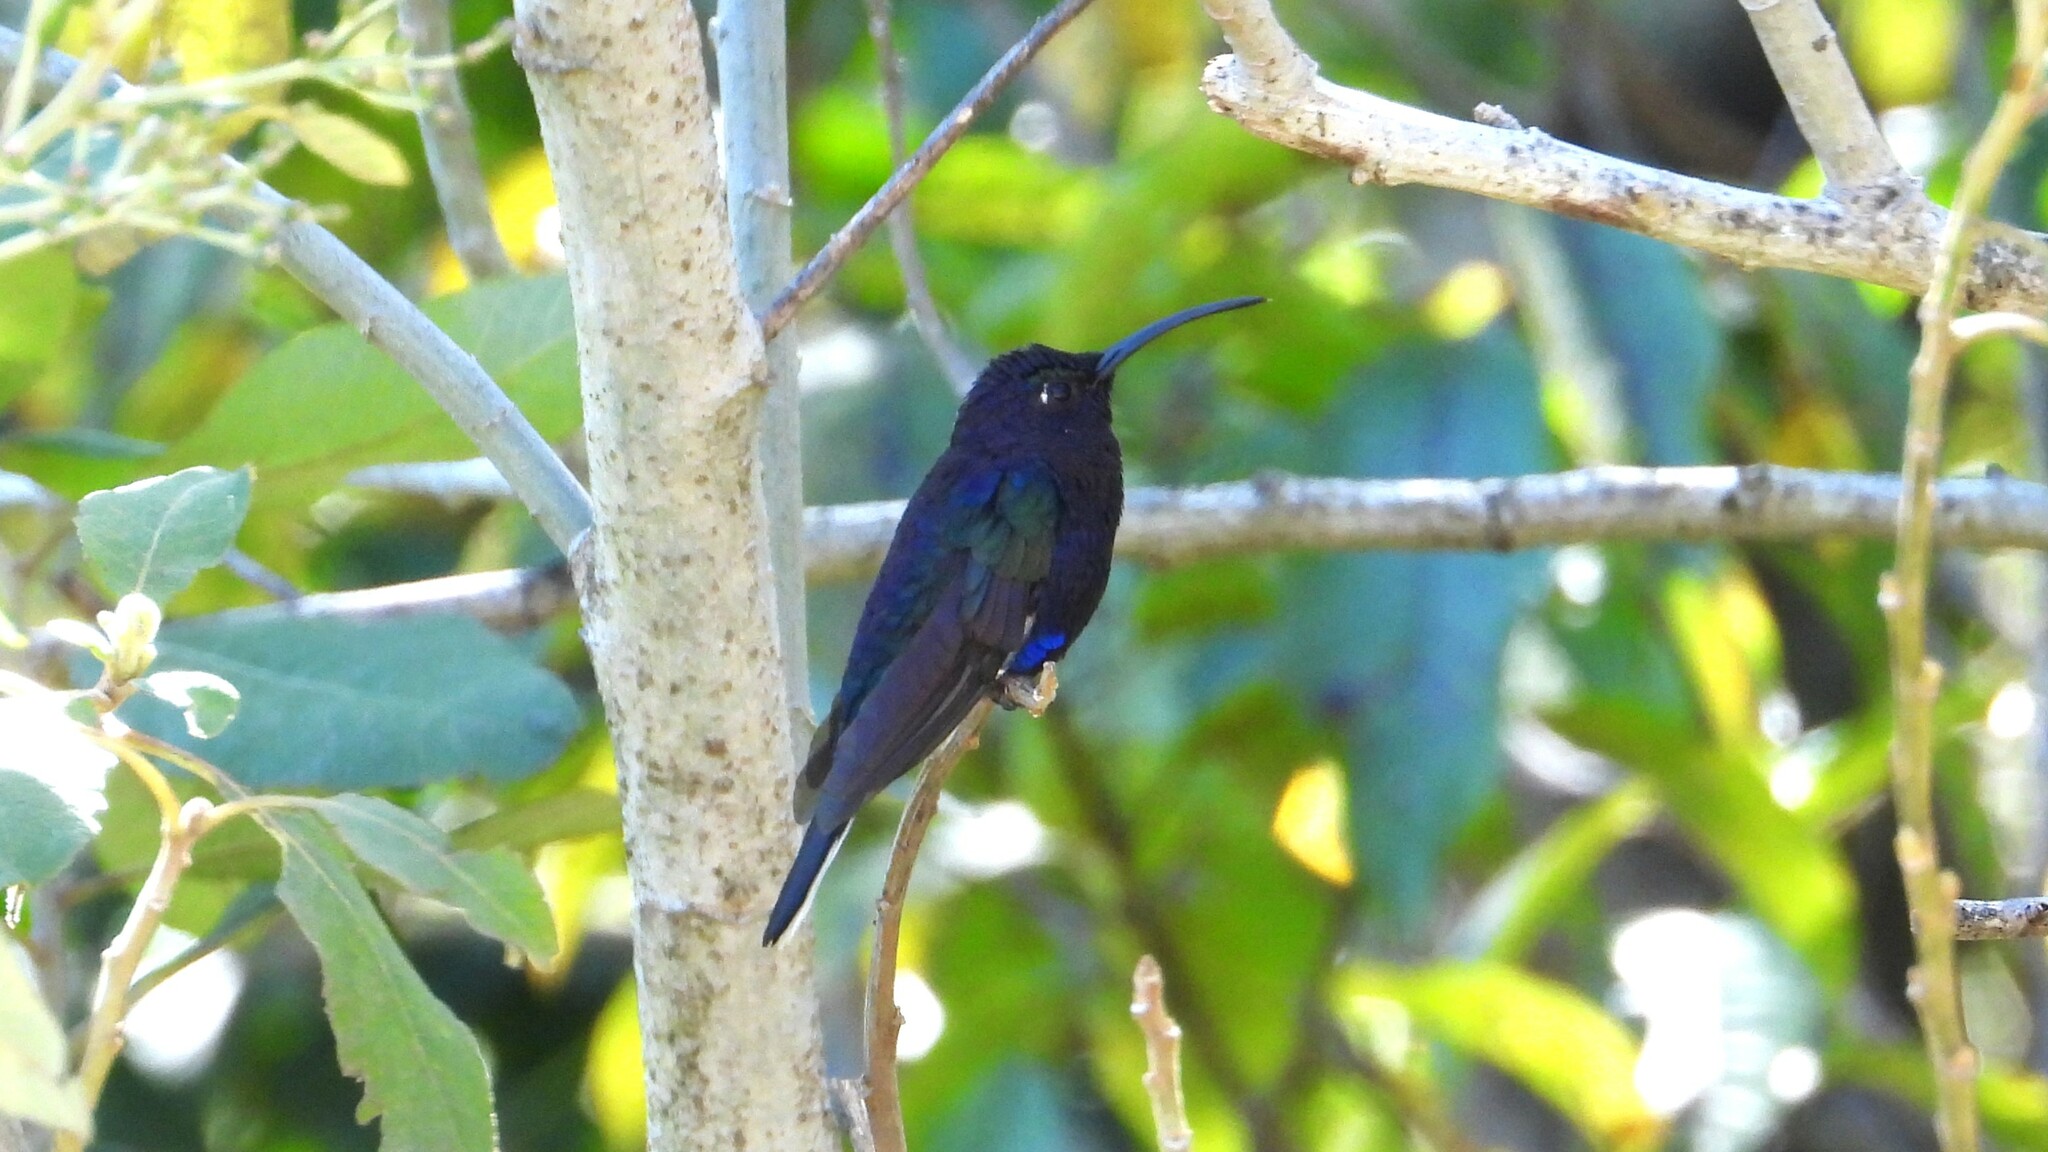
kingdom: Animalia
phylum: Chordata
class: Aves
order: Apodiformes
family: Trochilidae
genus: Campylopterus
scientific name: Campylopterus hemileucurus
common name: Violet sabrewing
